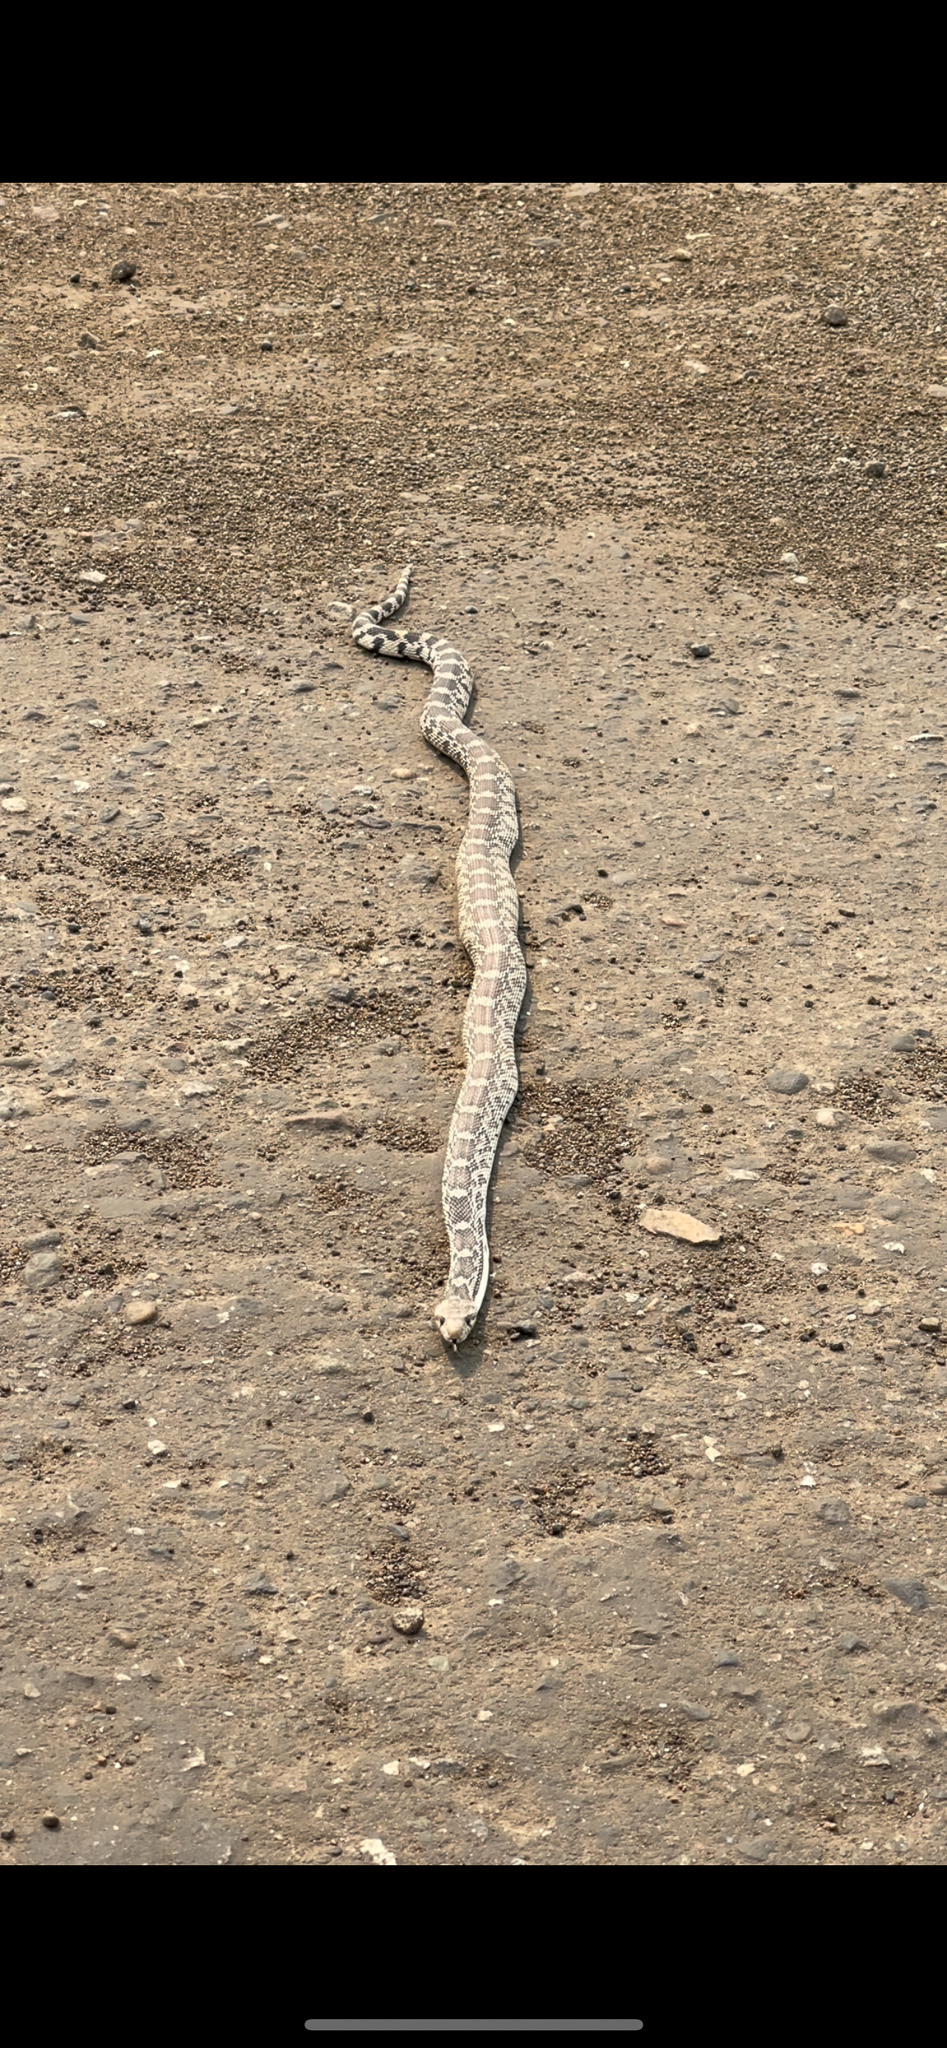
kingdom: Animalia
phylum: Chordata
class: Squamata
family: Colubridae
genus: Pituophis
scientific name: Pituophis catenifer
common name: Gopher snake
